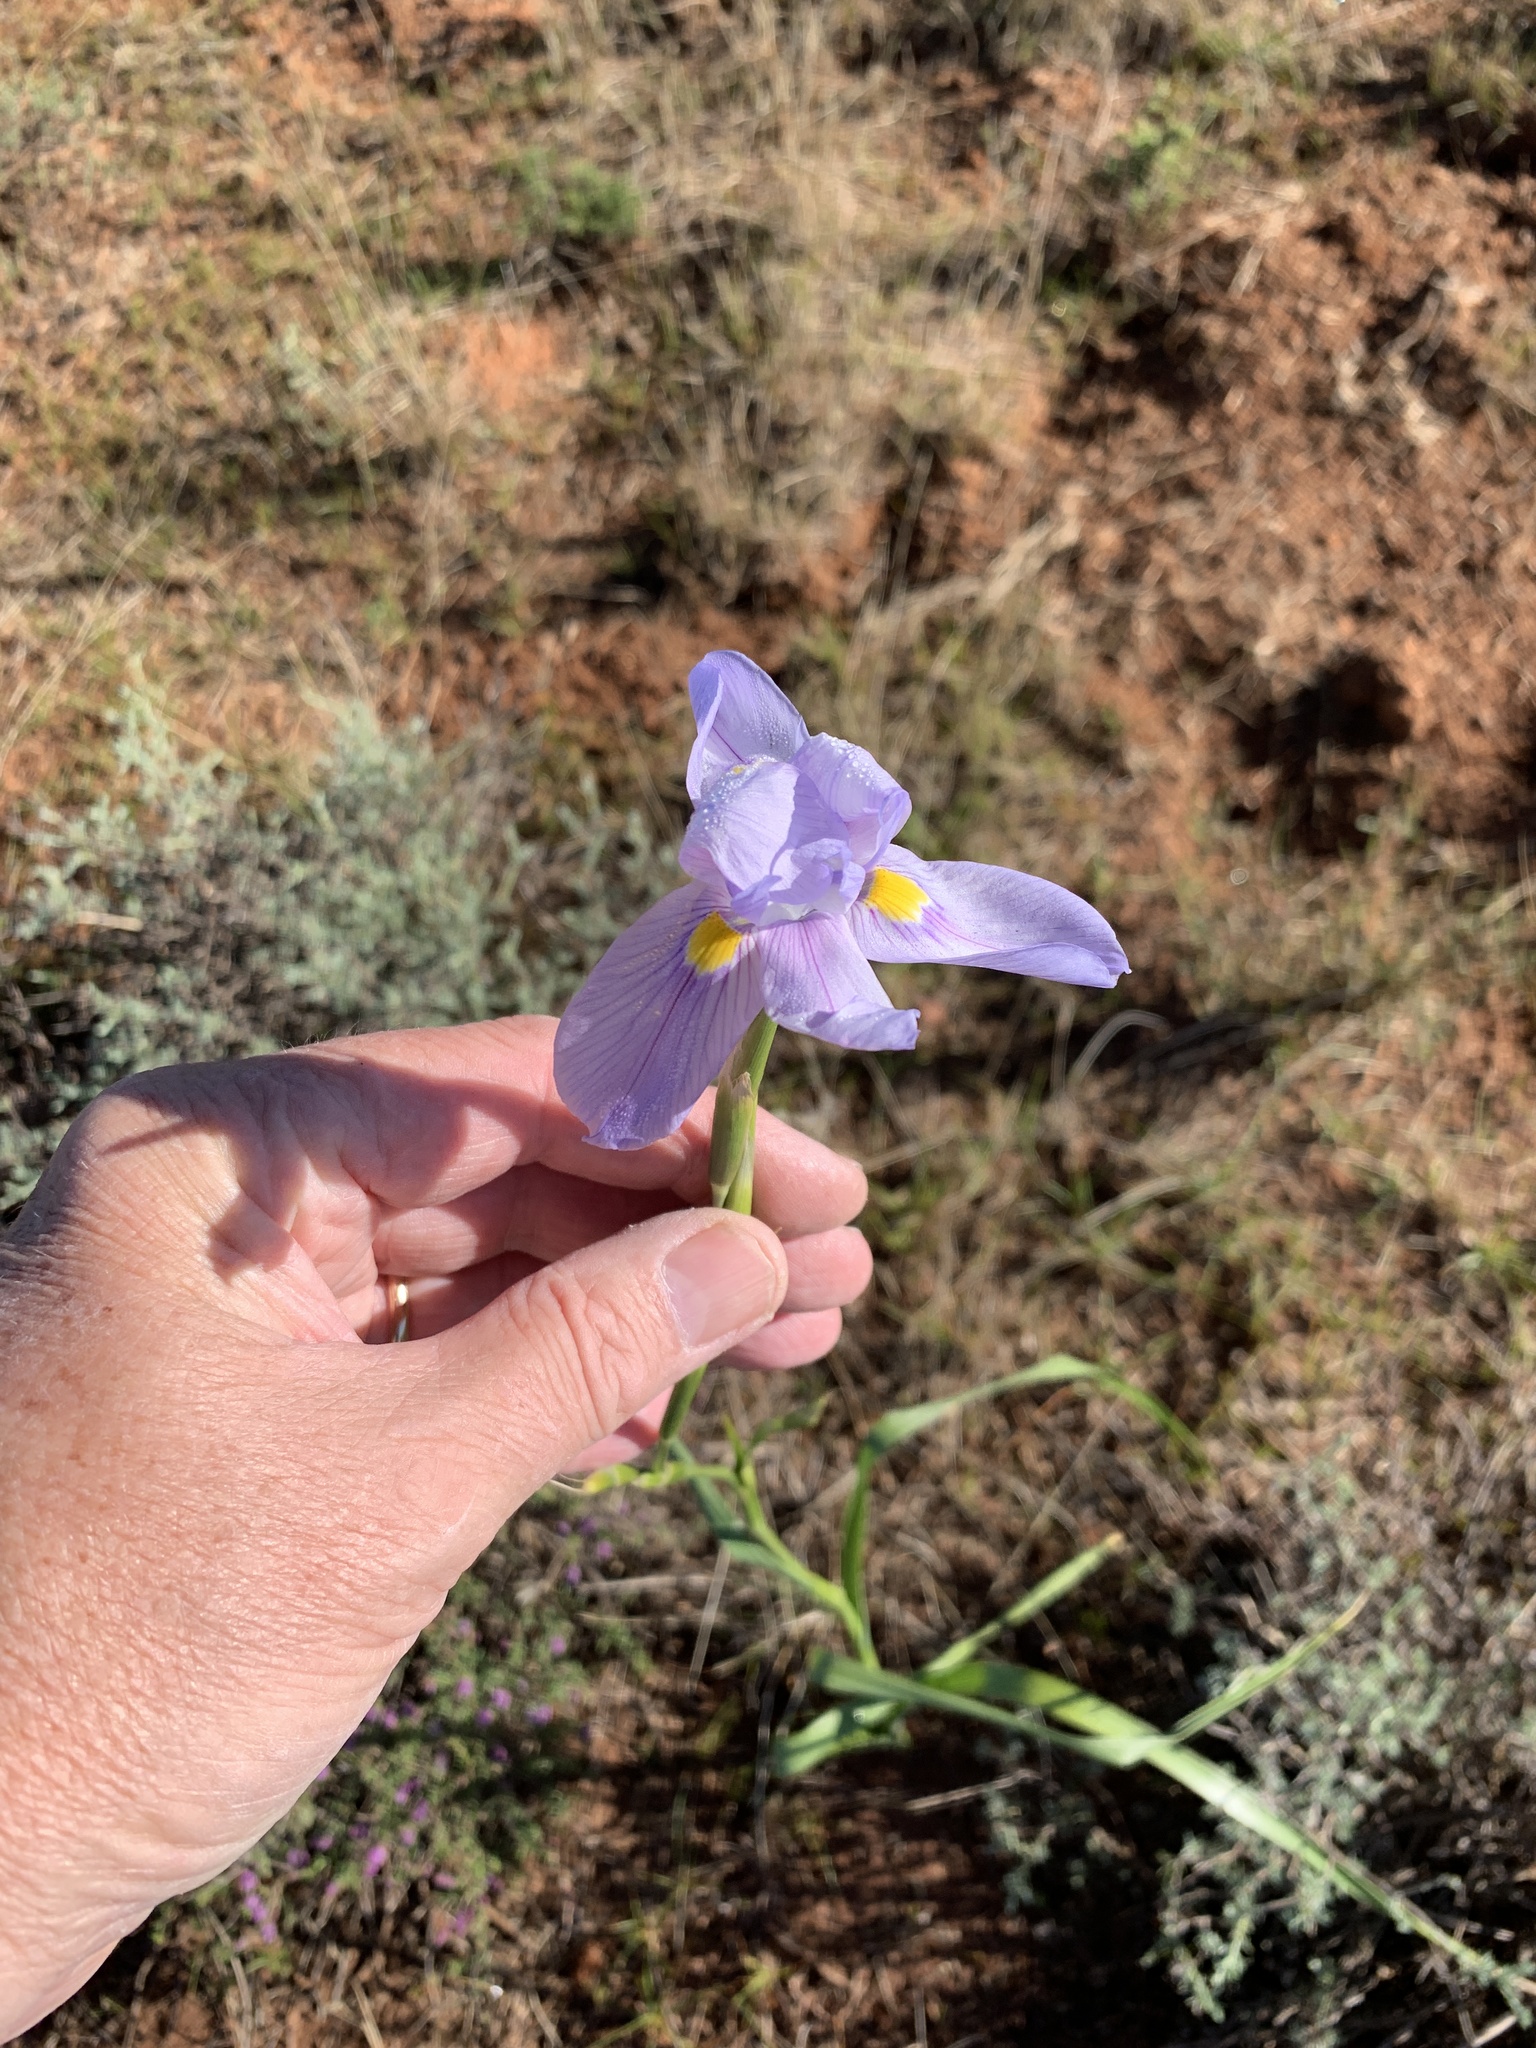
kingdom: Plantae
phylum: Tracheophyta
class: Liliopsida
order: Asparagales
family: Iridaceae
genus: Moraea
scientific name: Moraea polystachya
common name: Blue-tulip
